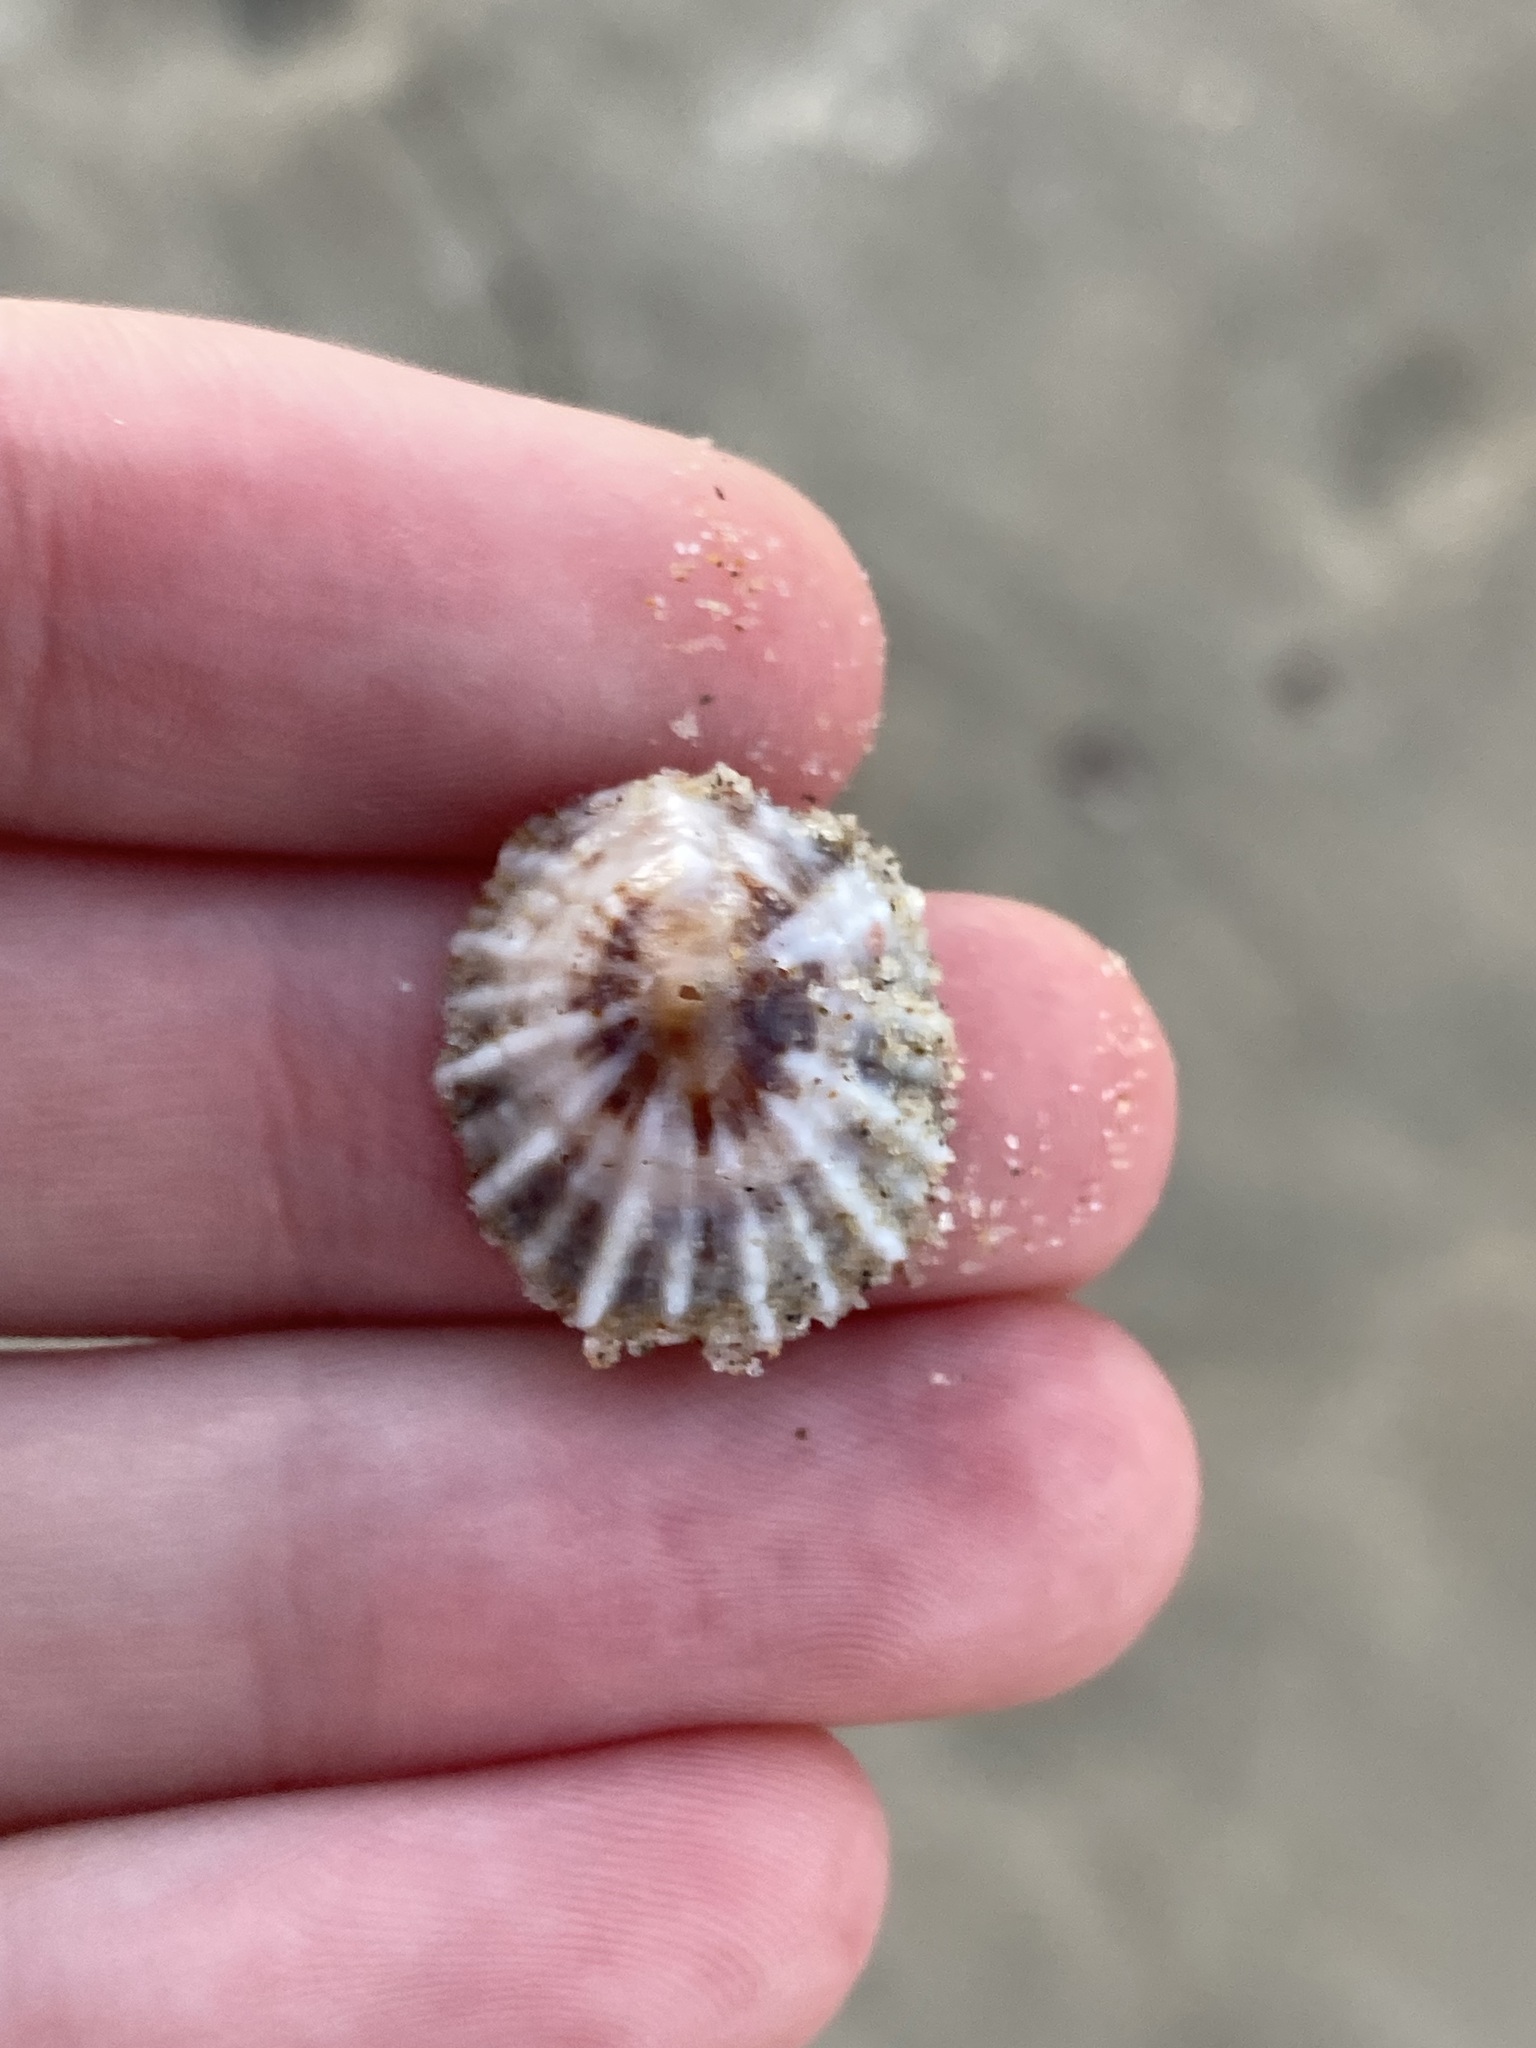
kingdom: Animalia
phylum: Mollusca
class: Gastropoda
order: Siphonariida
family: Siphonariidae
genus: Siphonaria
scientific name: Siphonaria denticulata
